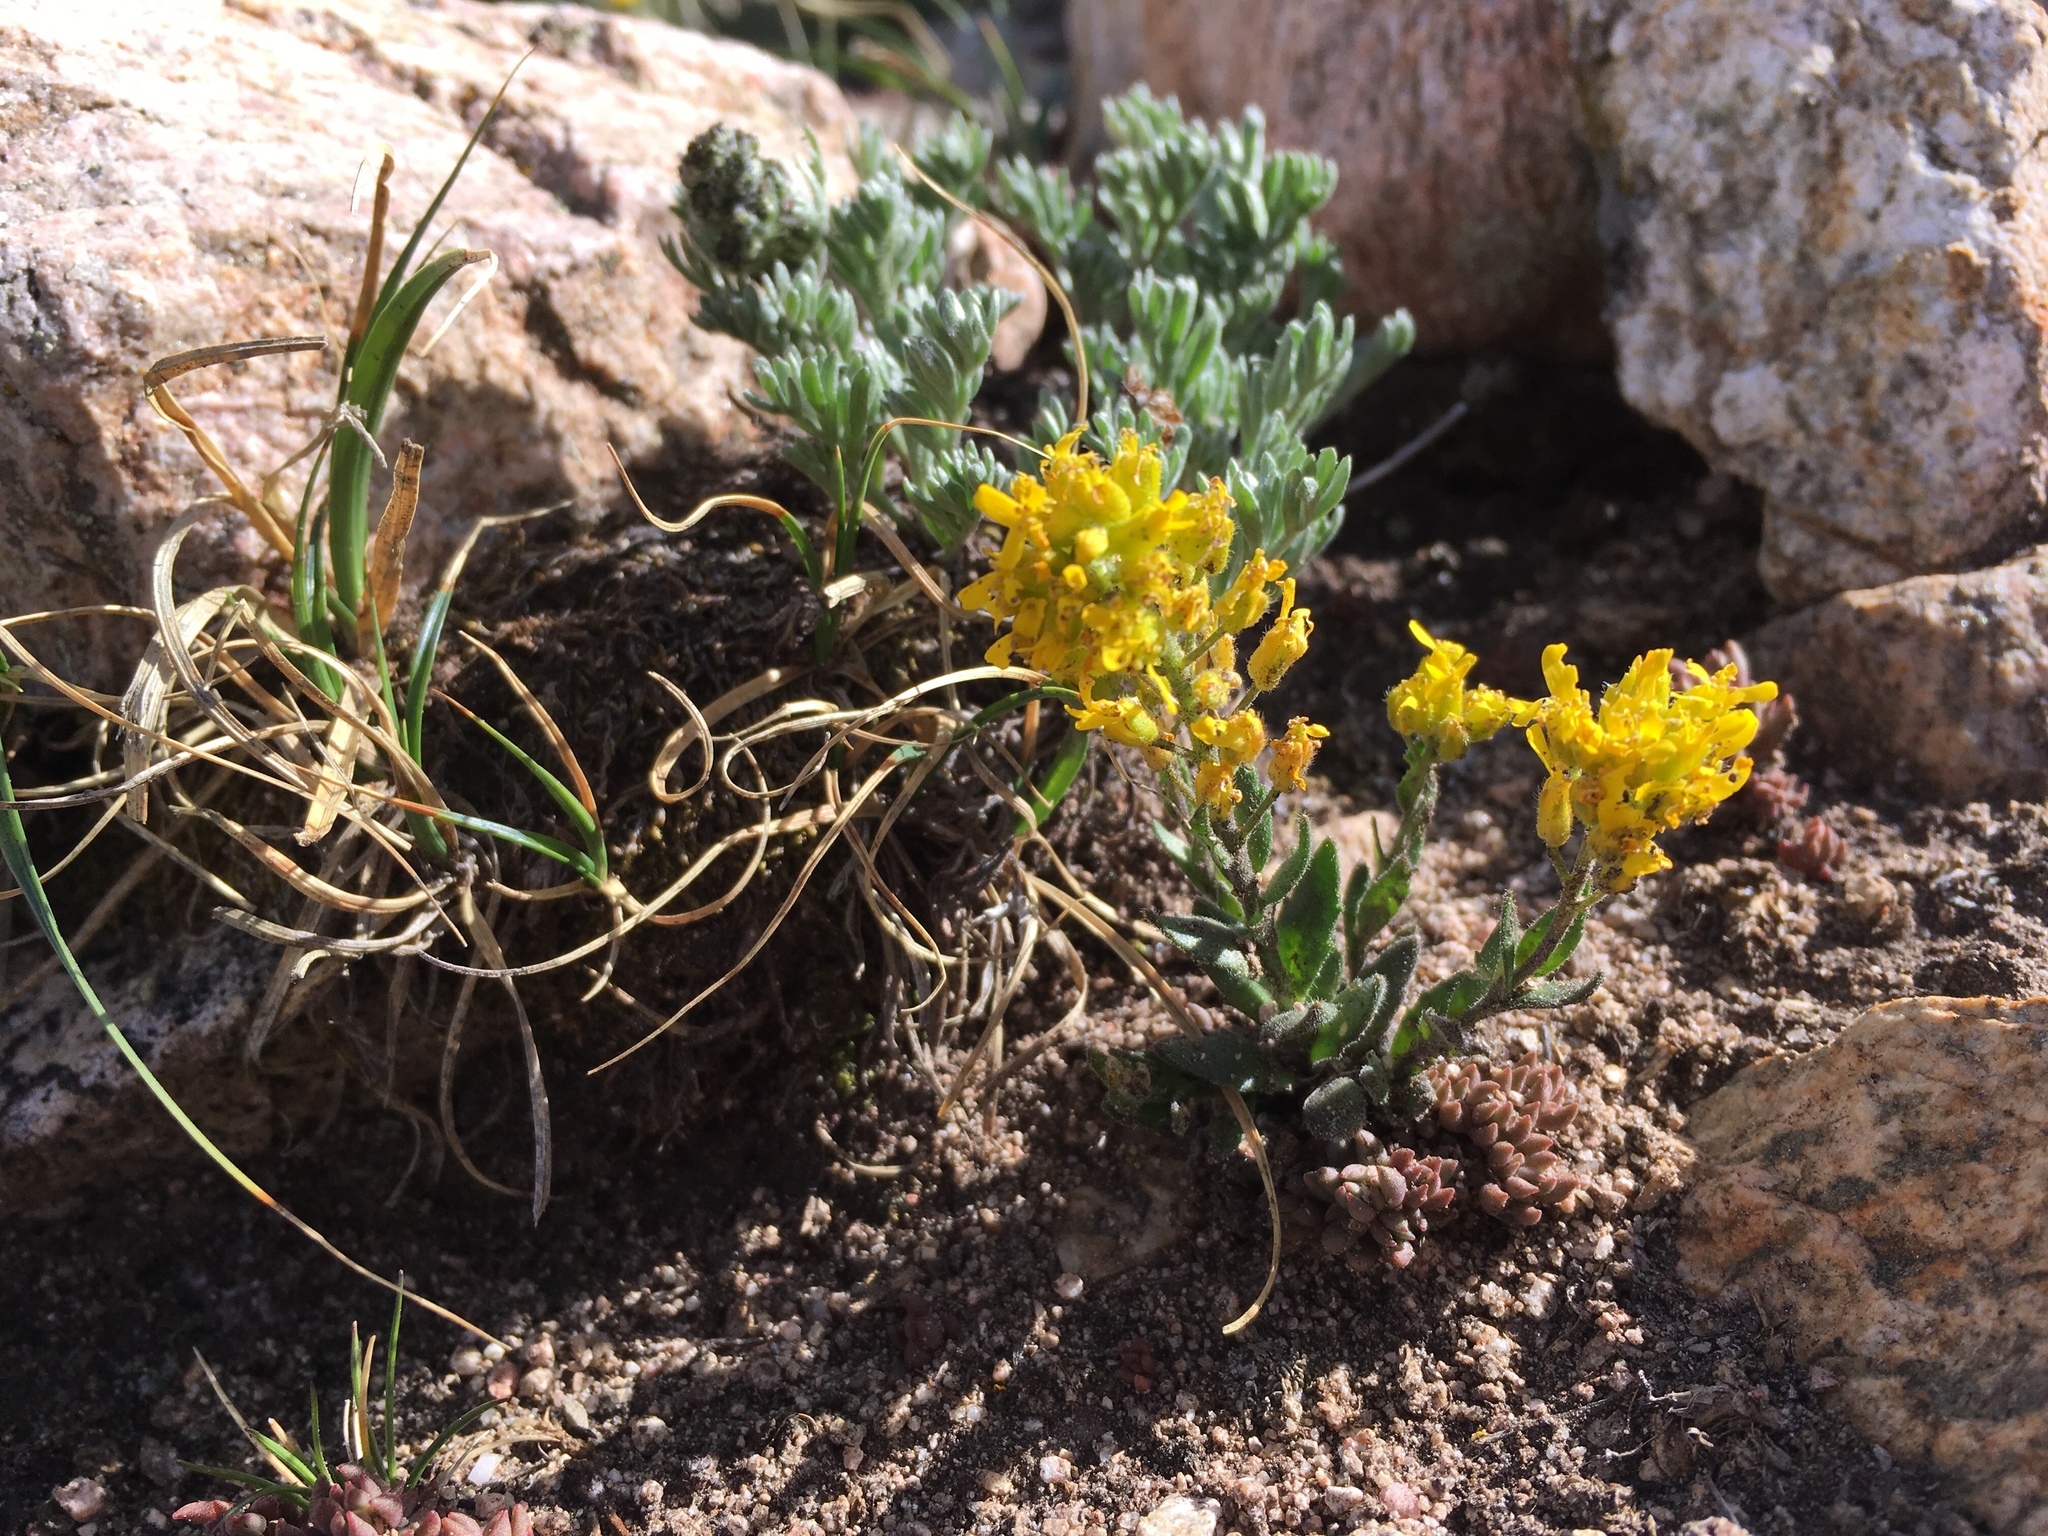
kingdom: Plantae
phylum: Tracheophyta
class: Magnoliopsida
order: Brassicales
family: Brassicaceae
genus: Draba
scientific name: Draba aurea
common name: Golden draba
